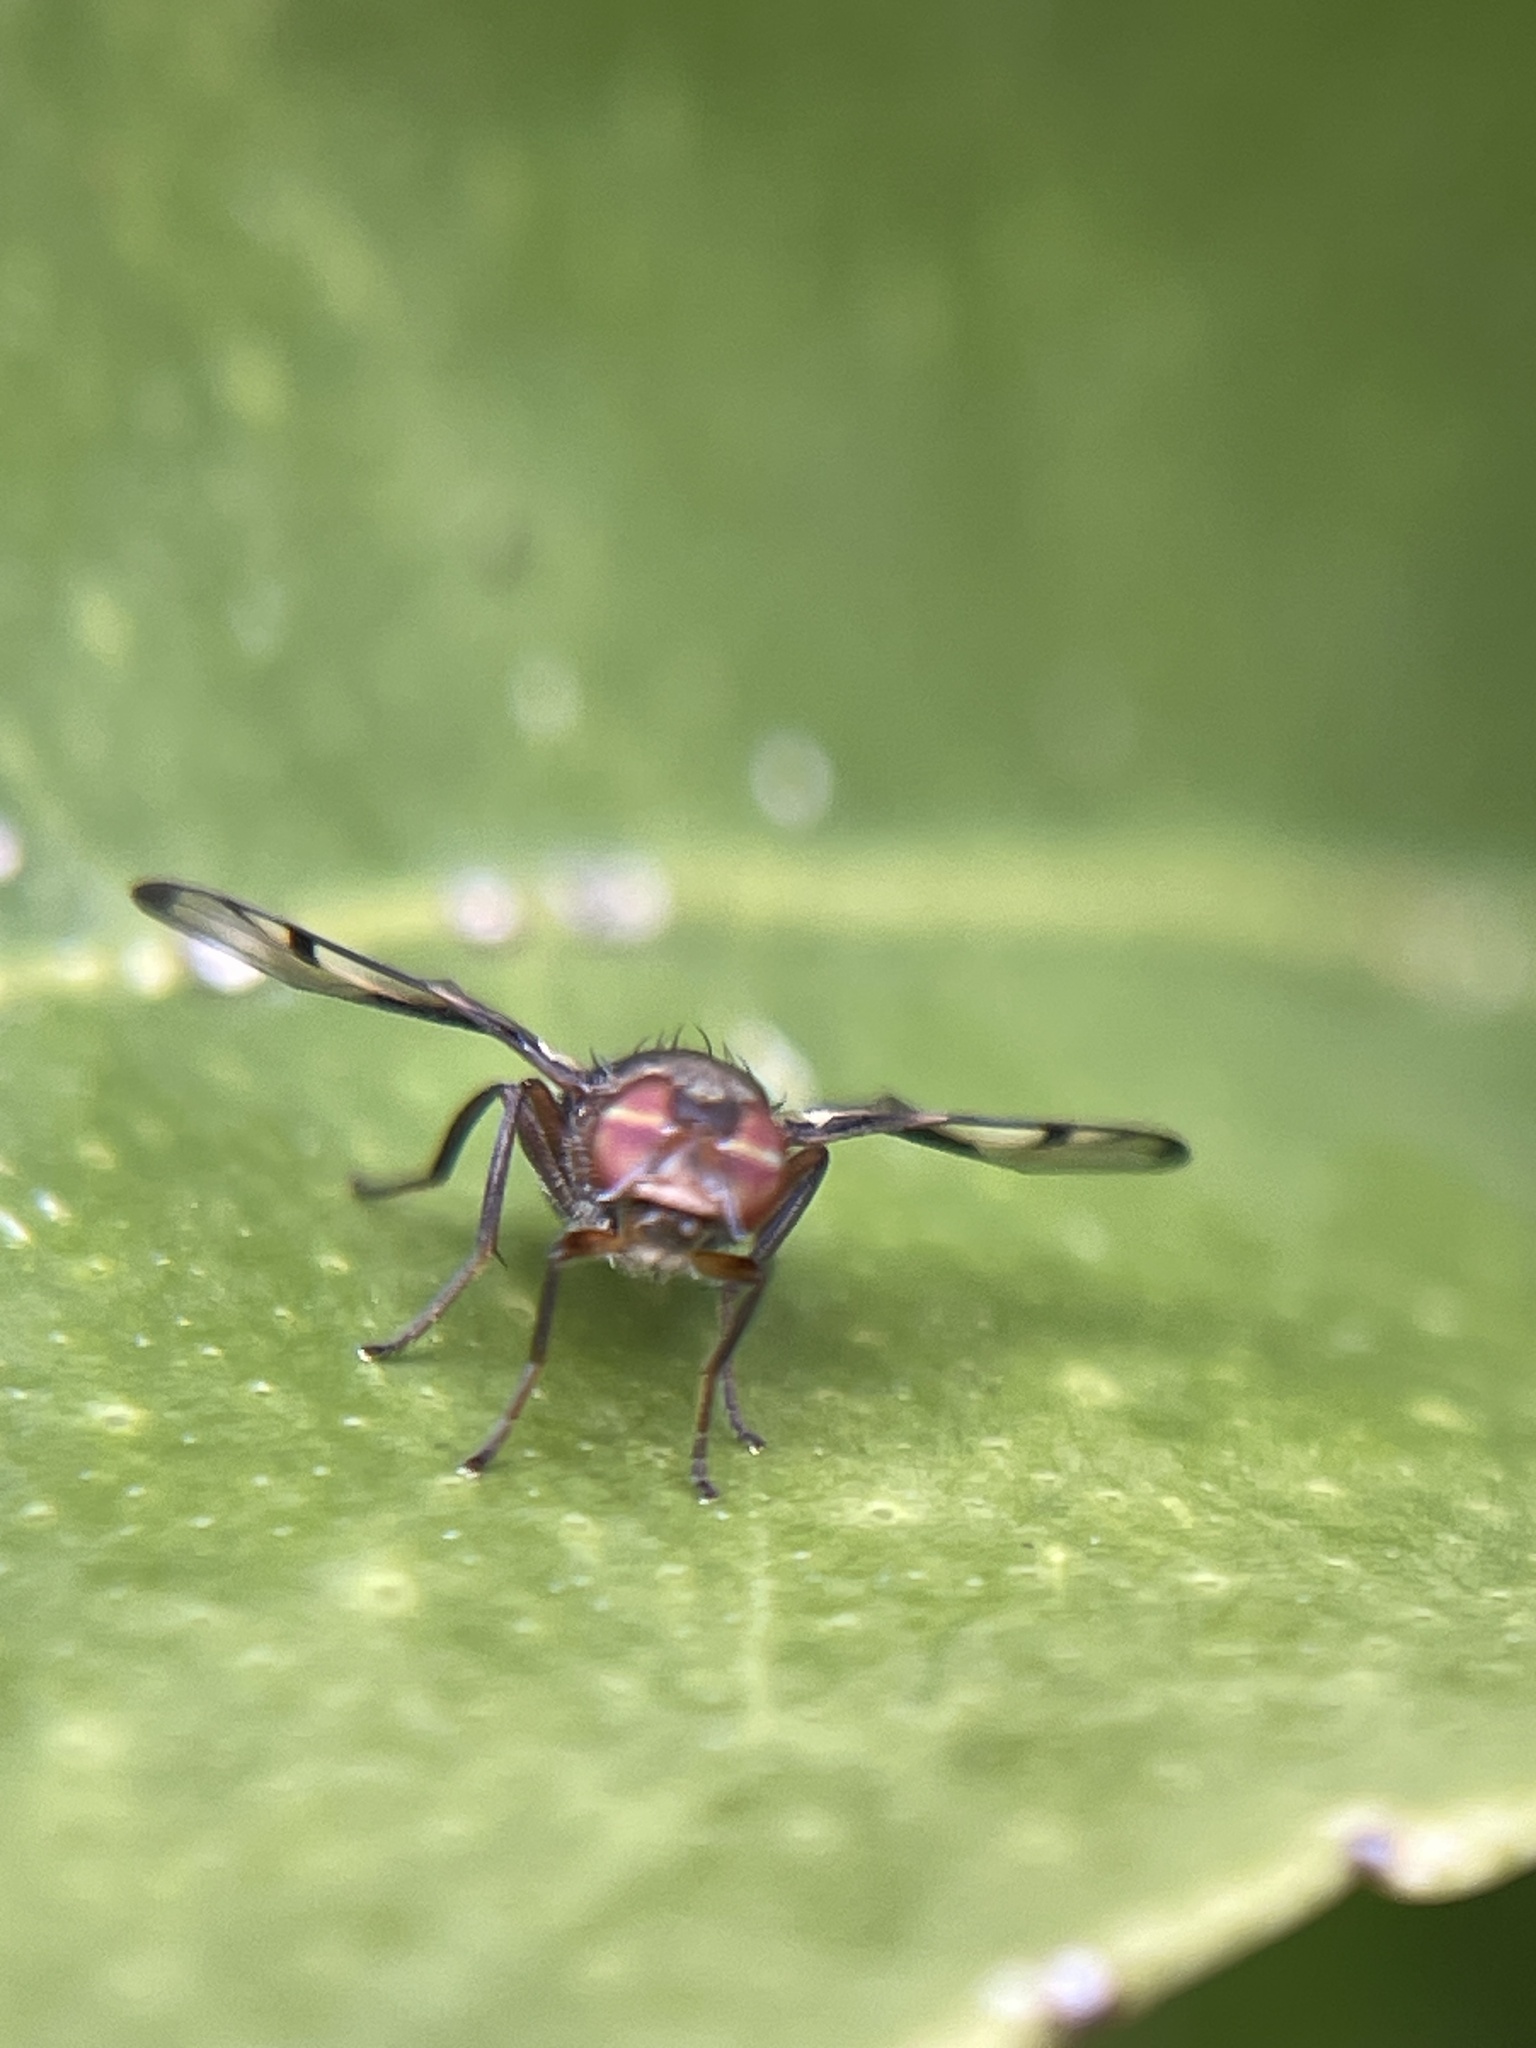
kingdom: Animalia
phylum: Arthropoda
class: Insecta
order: Diptera
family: Platystomatidae
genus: Pogonortalis
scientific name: Pogonortalis doclea
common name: Boatman fly
